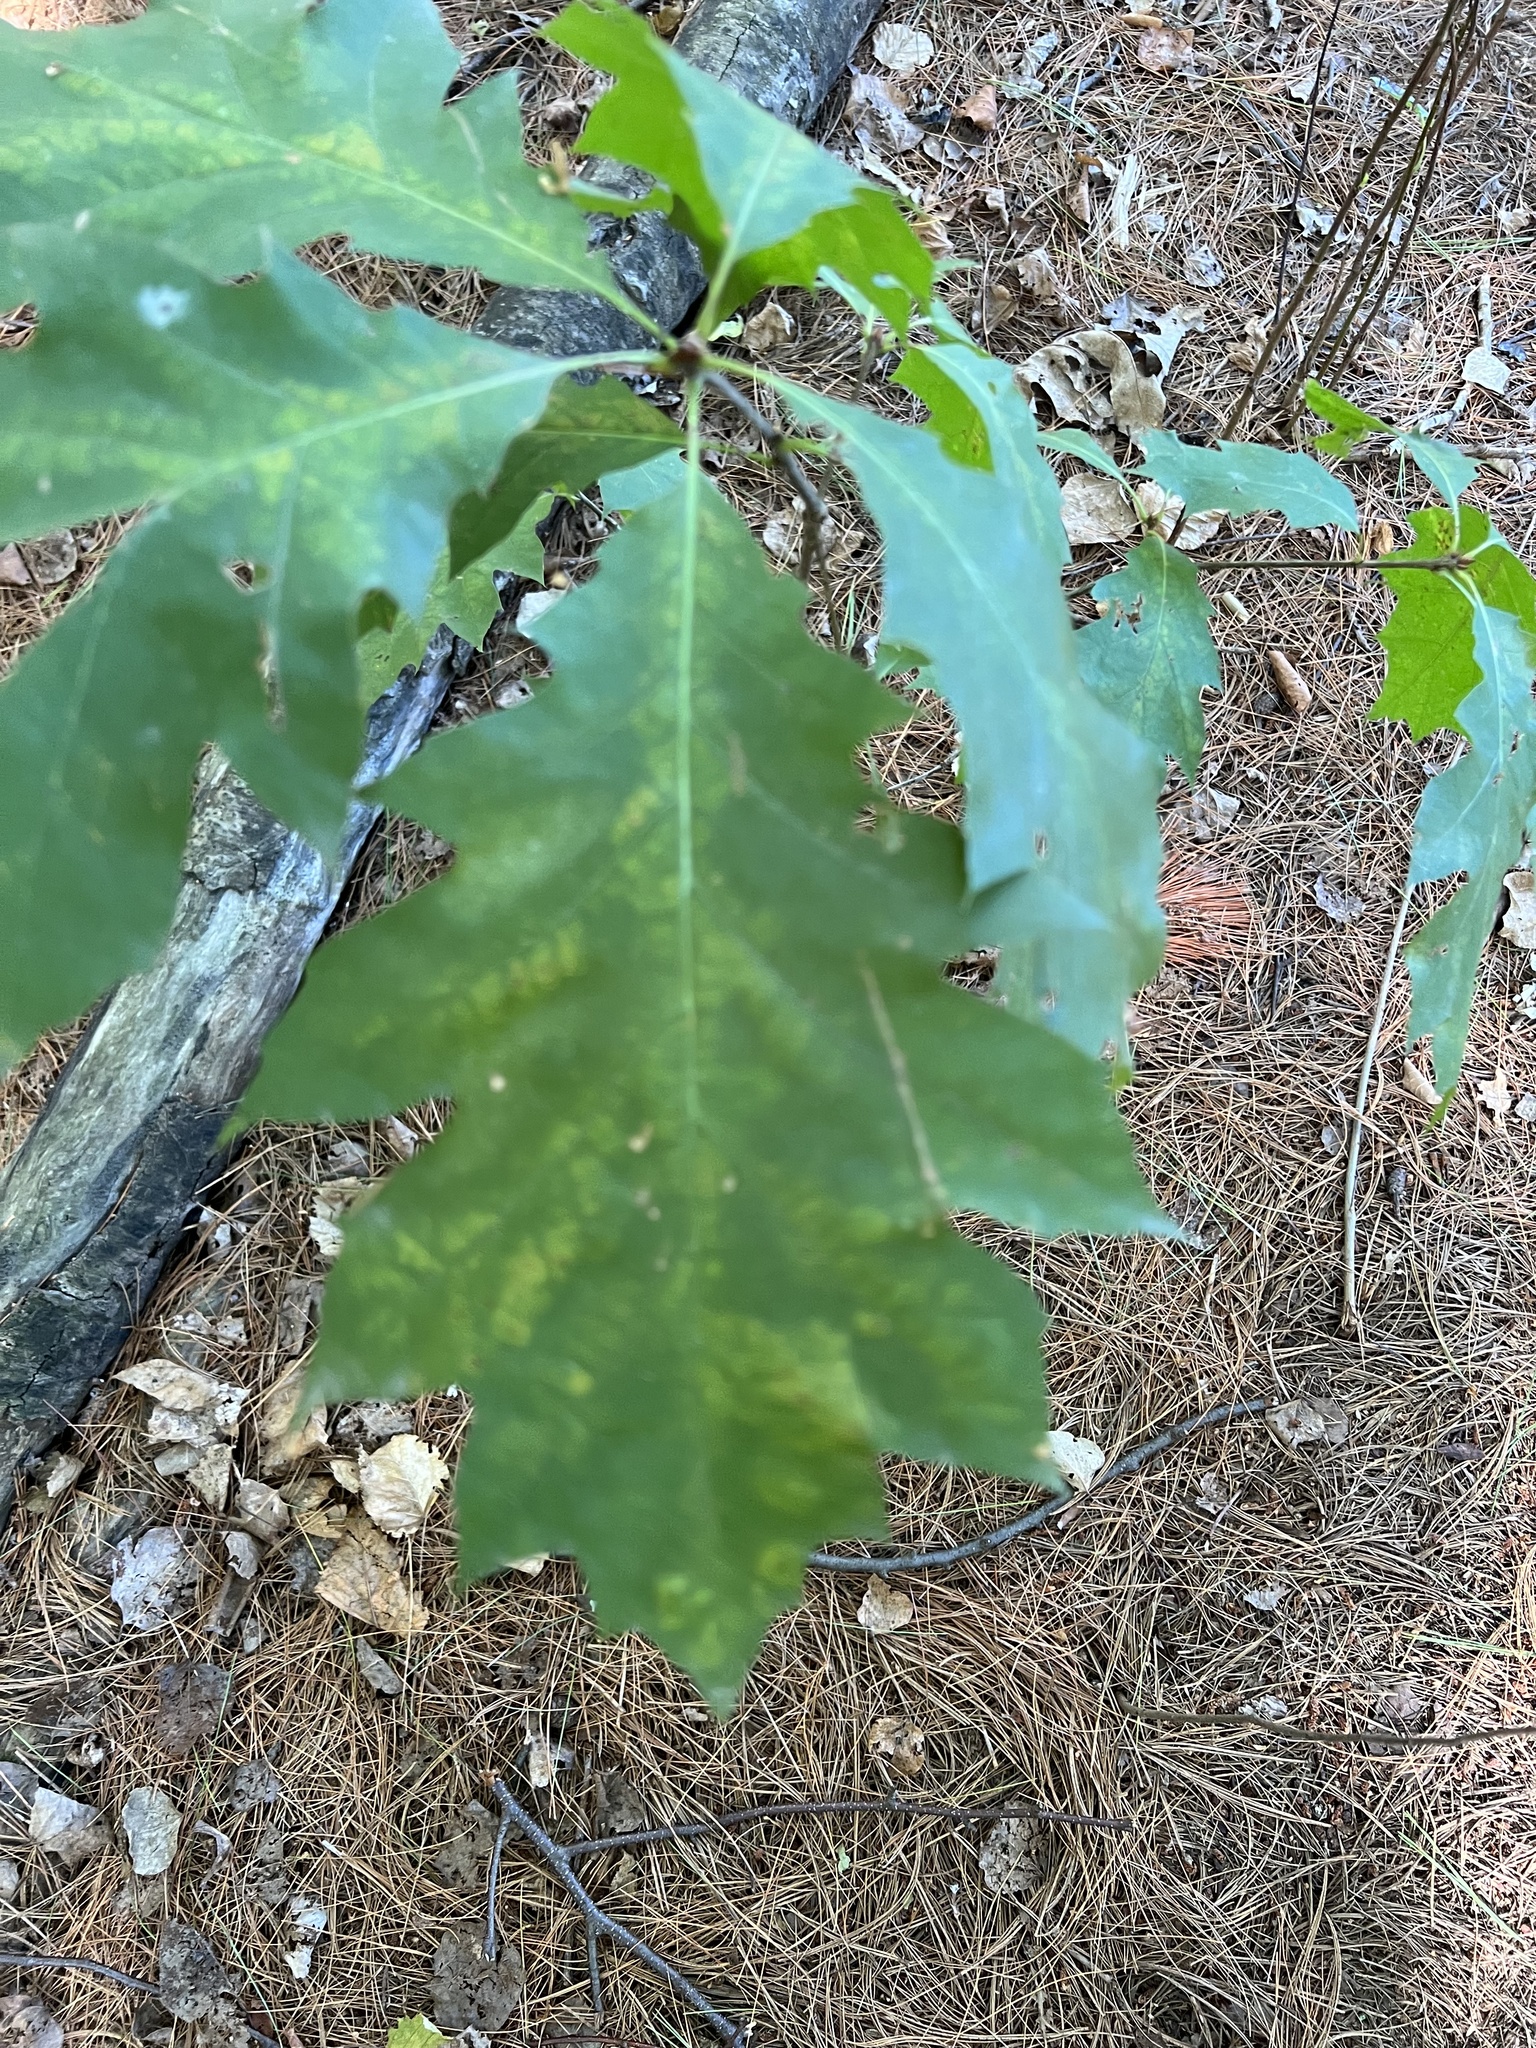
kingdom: Plantae
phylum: Tracheophyta
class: Magnoliopsida
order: Fagales
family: Fagaceae
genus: Quercus
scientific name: Quercus rubra
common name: Red oak
